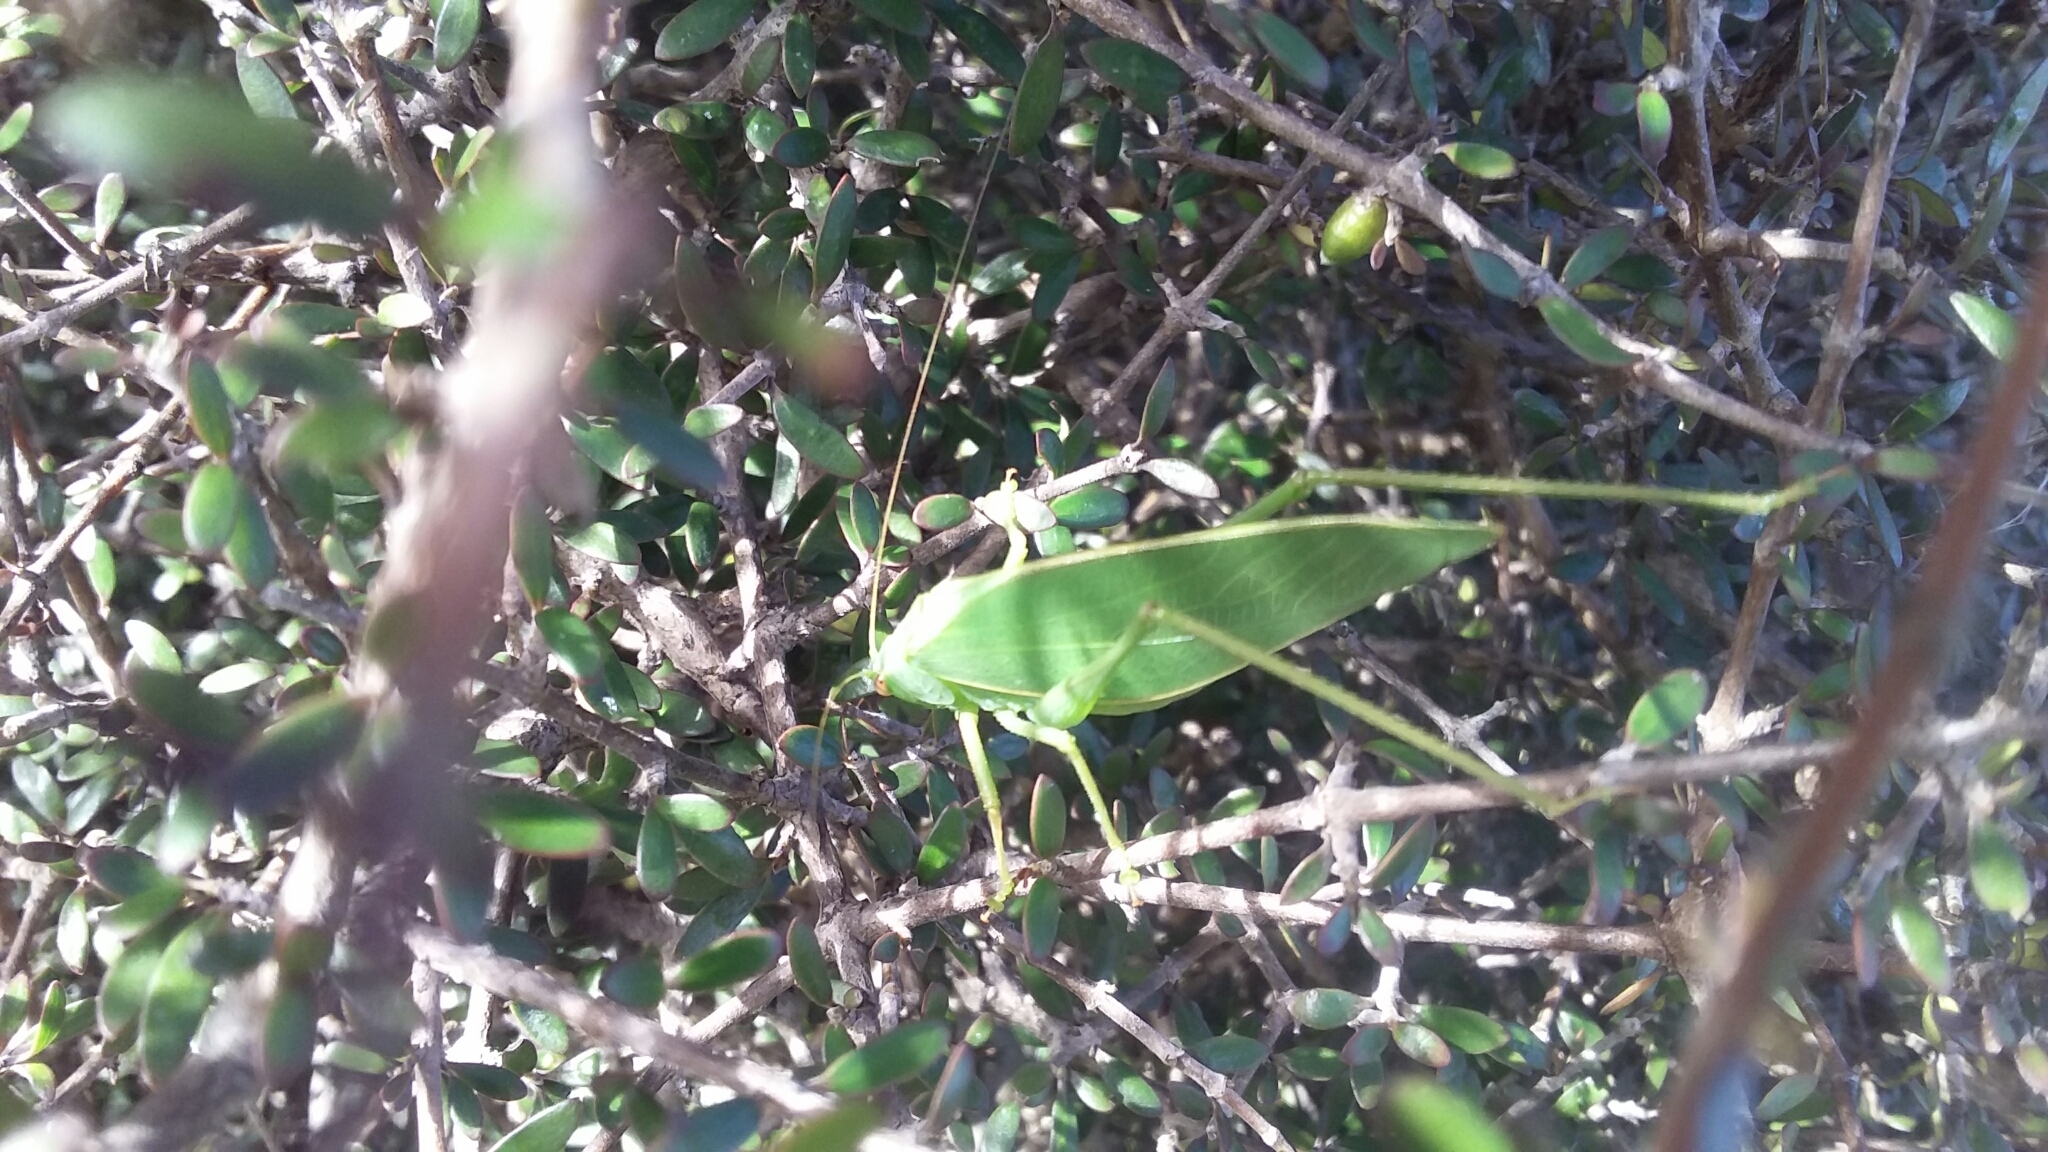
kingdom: Animalia
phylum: Arthropoda
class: Insecta
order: Orthoptera
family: Tettigoniidae
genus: Caedicia
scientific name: Caedicia simplex
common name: Common garden katydid
